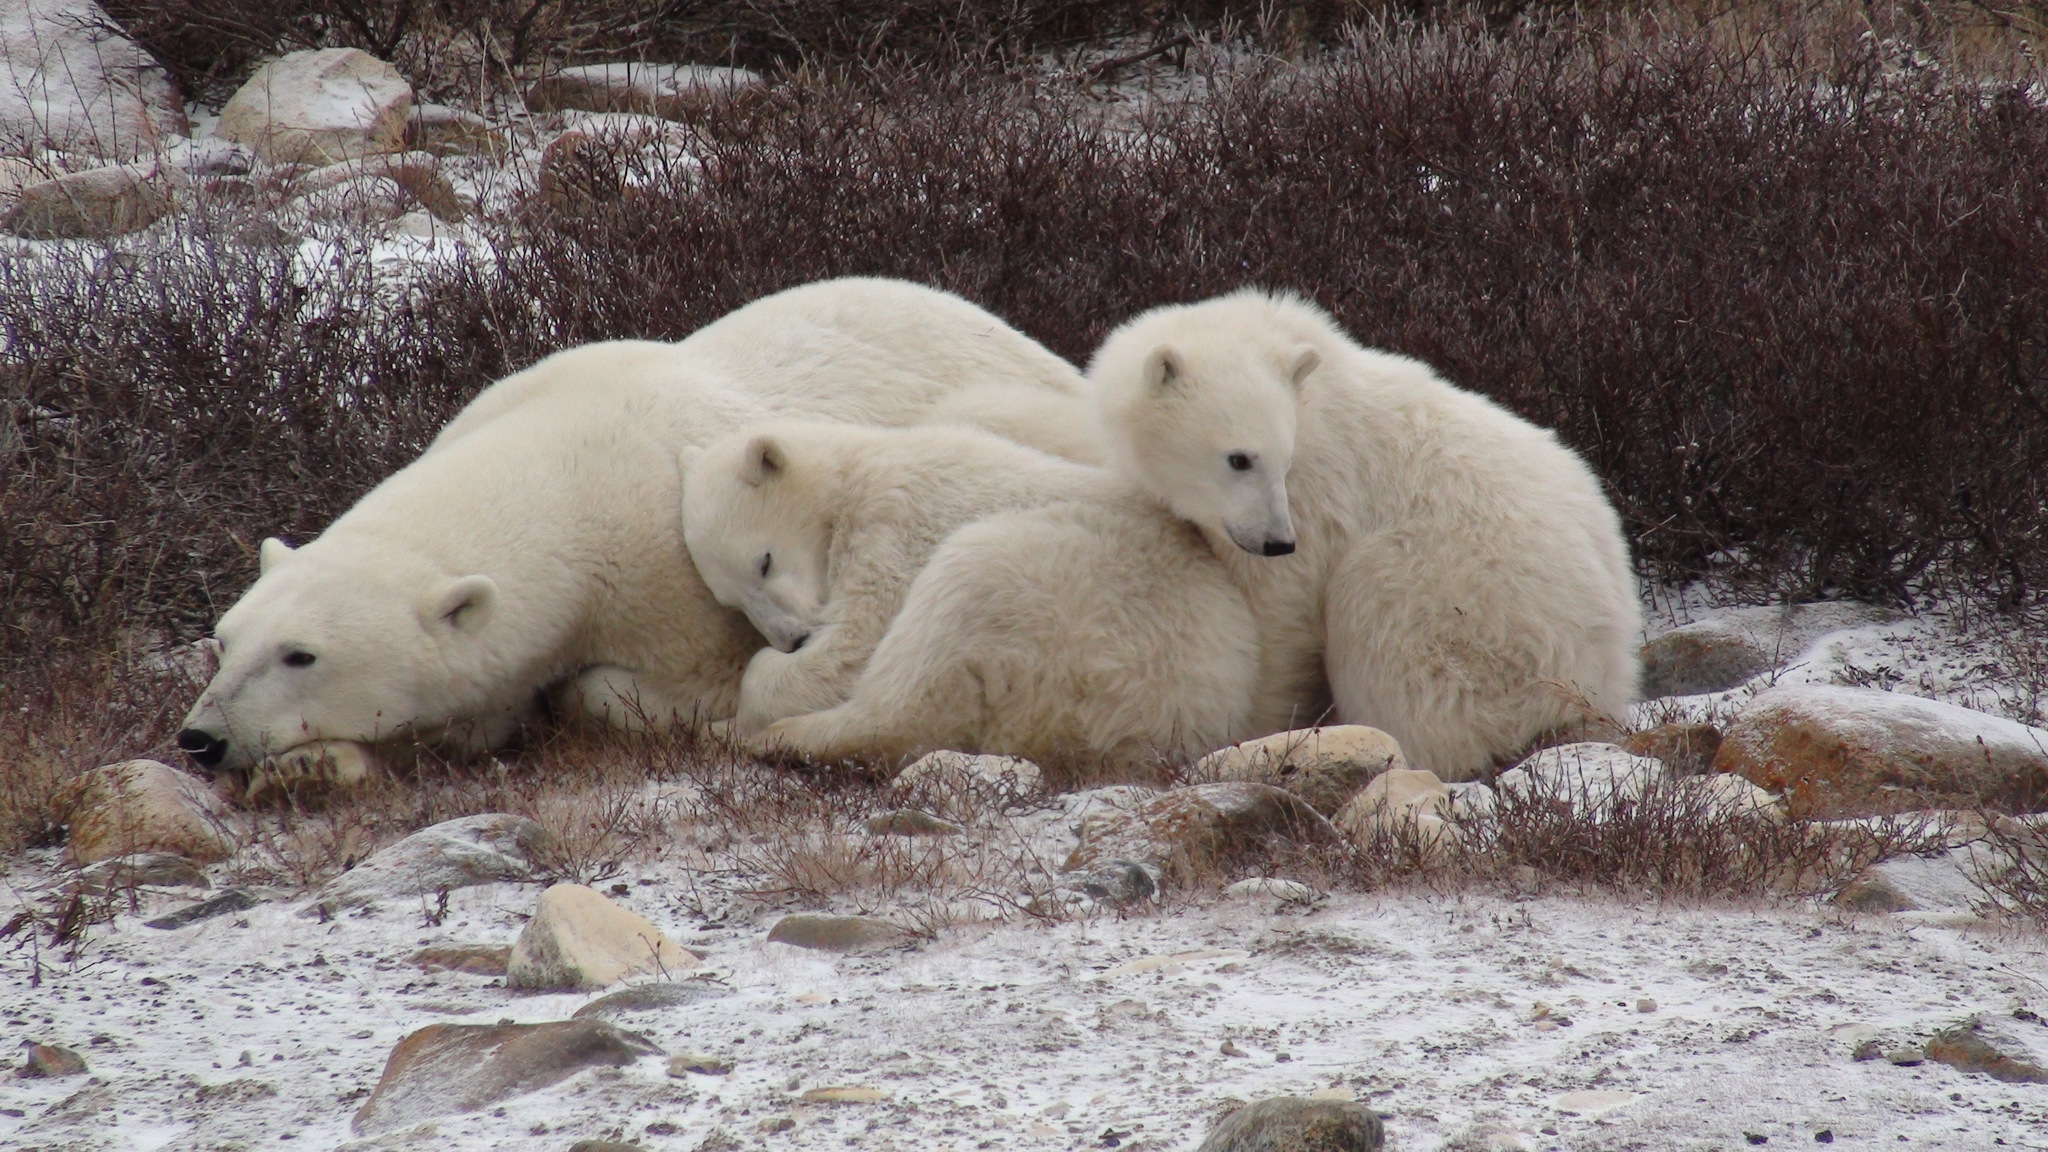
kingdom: Animalia
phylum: Chordata
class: Mammalia
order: Carnivora
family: Ursidae
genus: Ursus
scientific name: Ursus maritimus
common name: Polar bear
